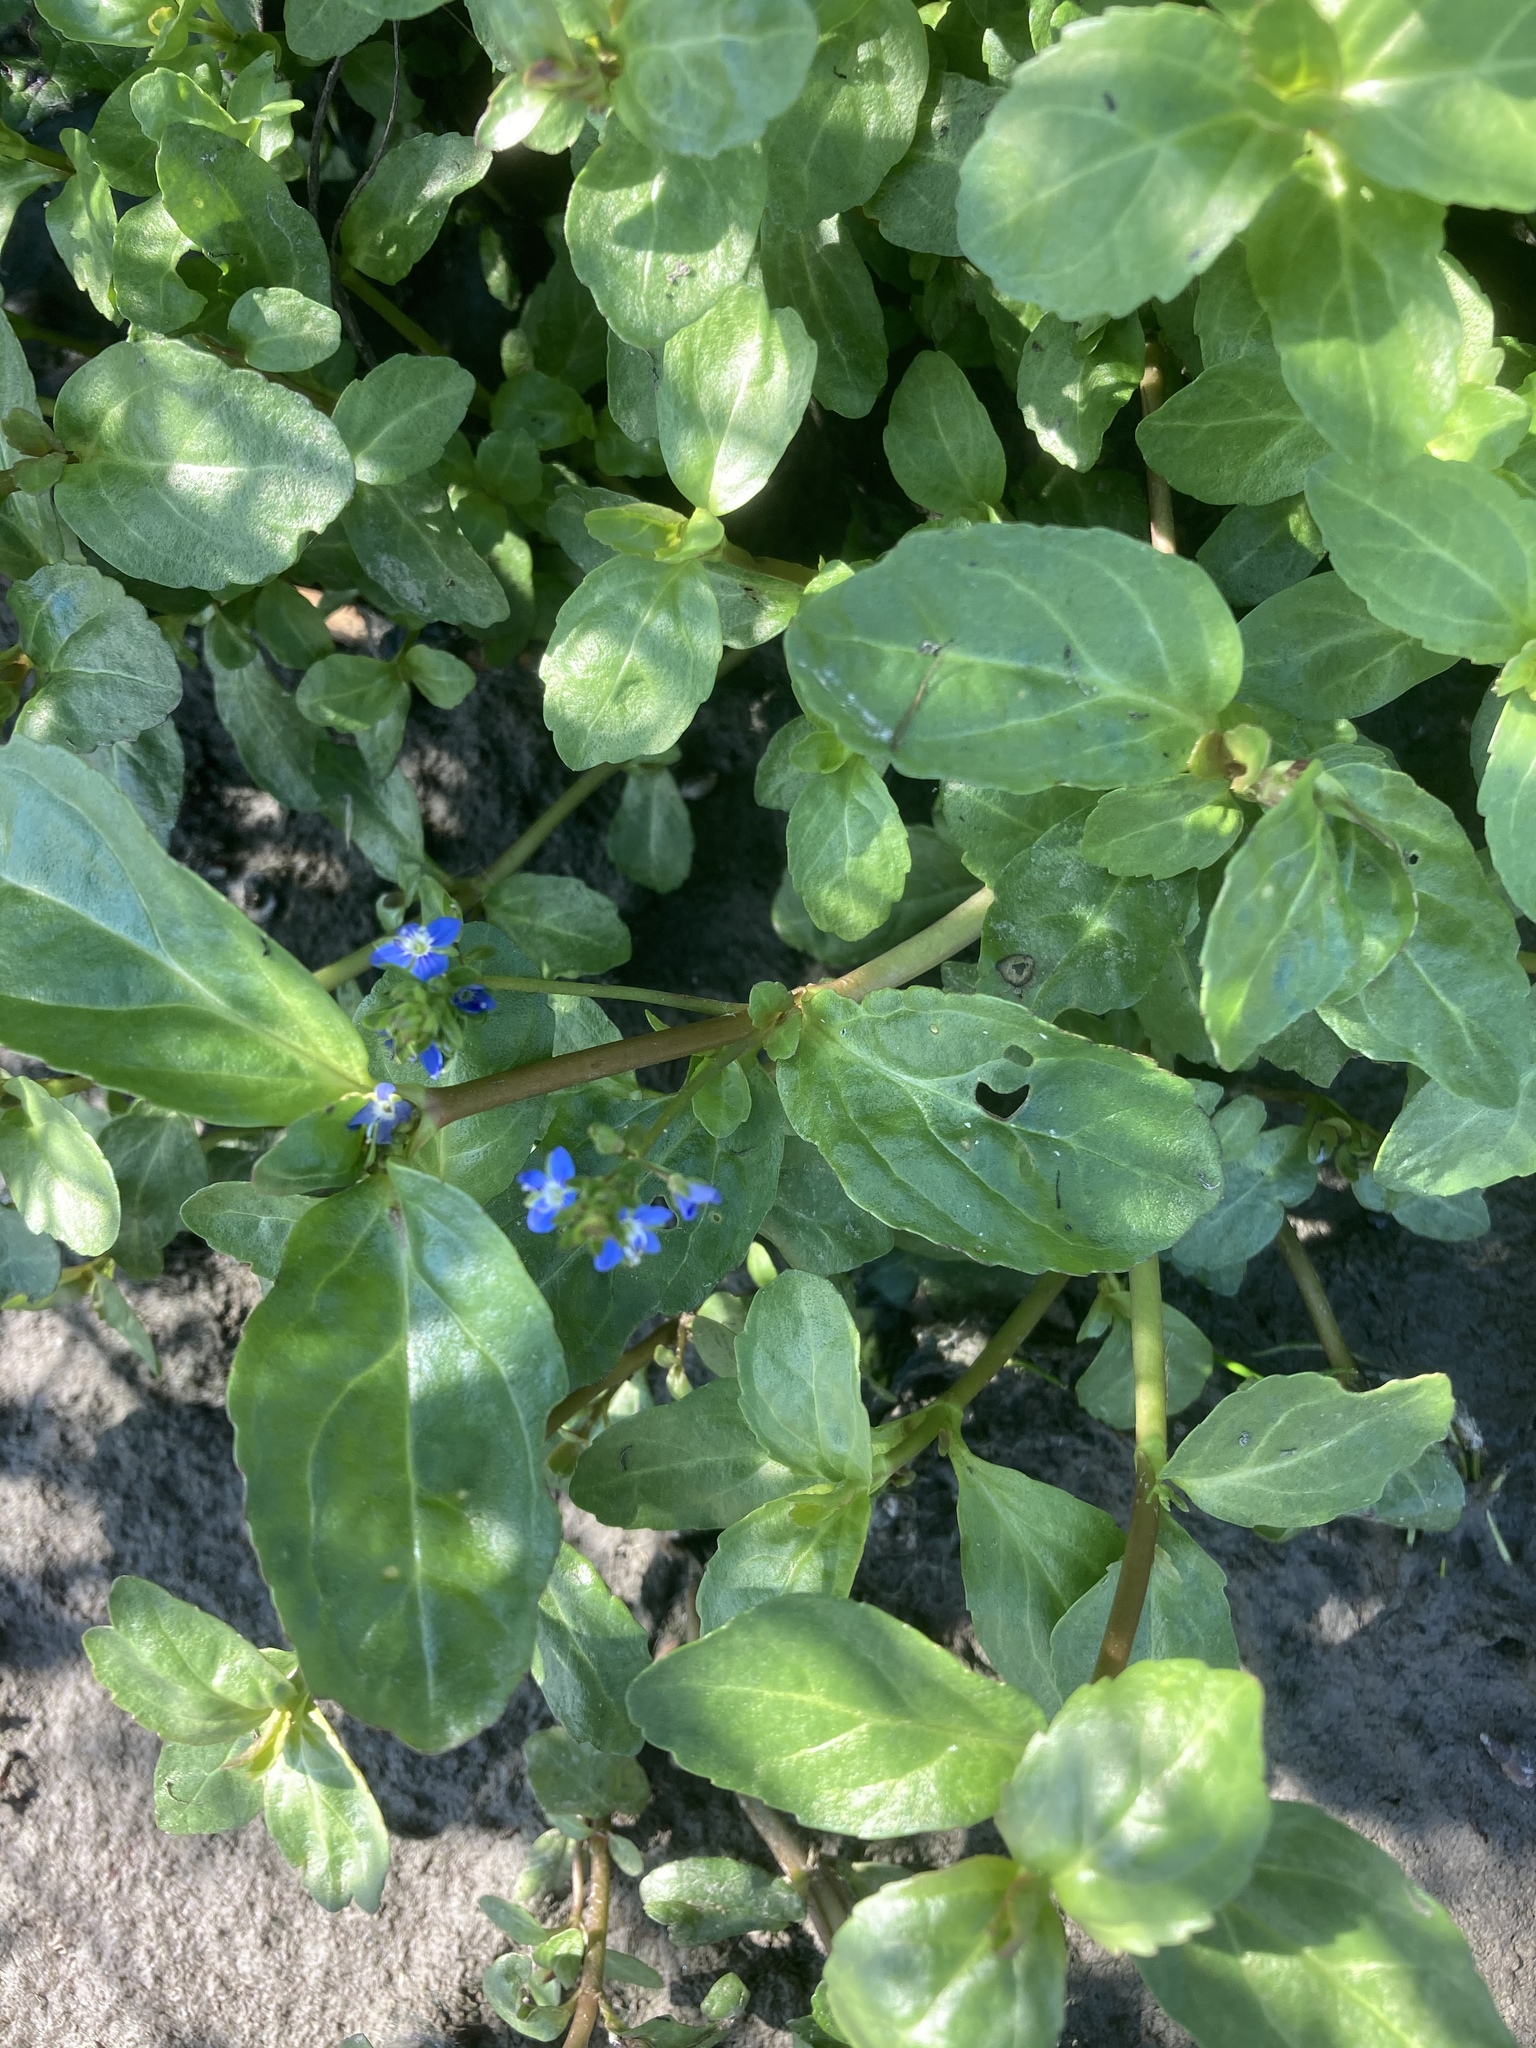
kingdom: Plantae
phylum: Tracheophyta
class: Magnoliopsida
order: Lamiales
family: Plantaginaceae
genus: Veronica
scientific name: Veronica beccabunga
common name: Brooklime
